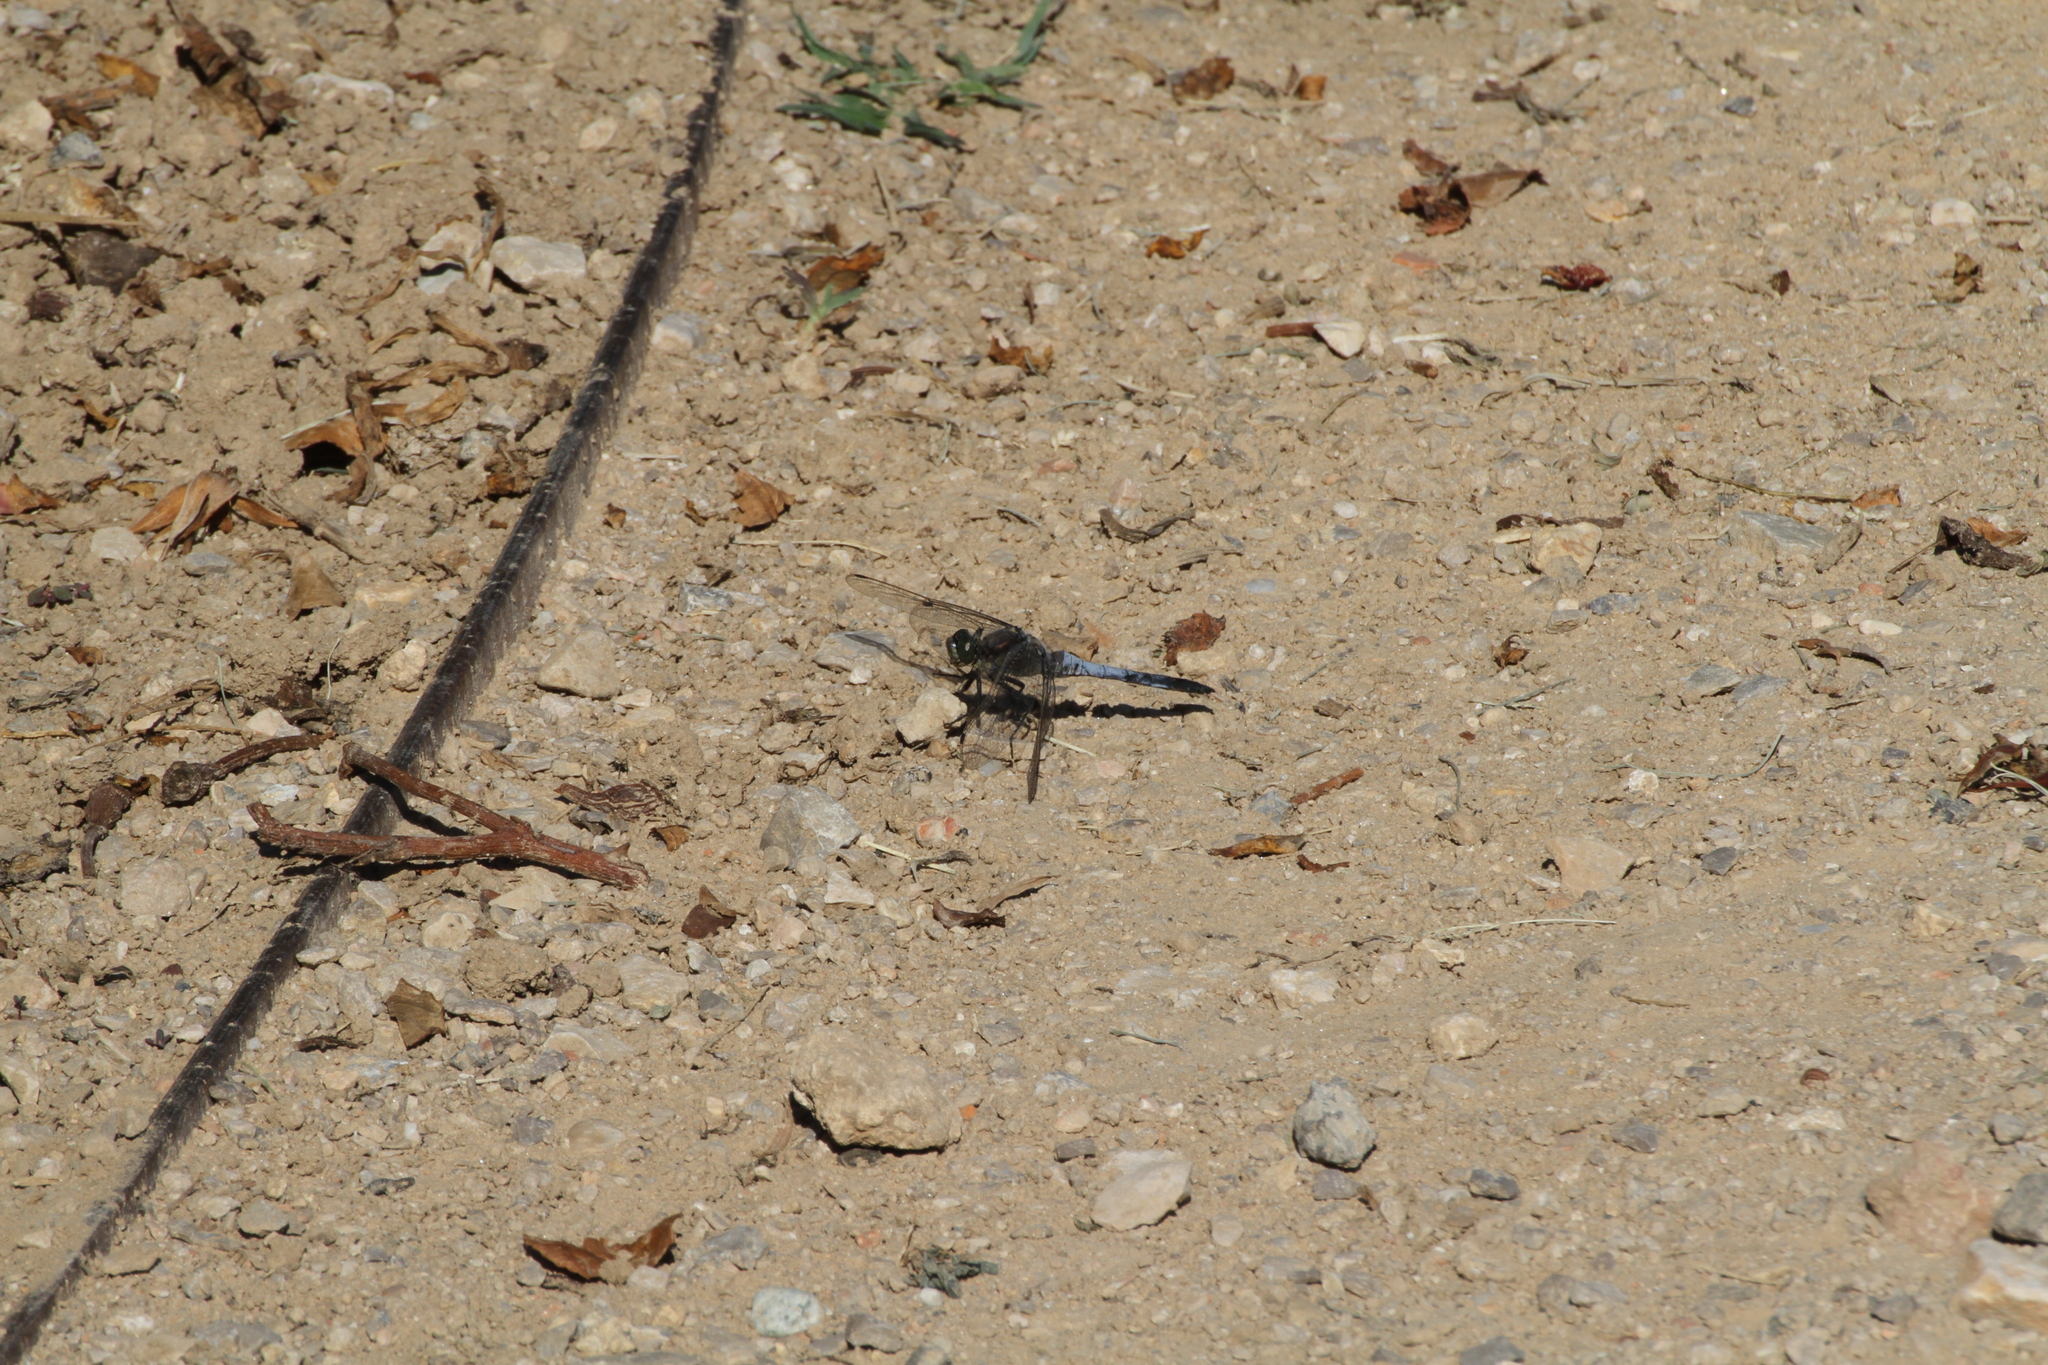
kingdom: Animalia
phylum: Arthropoda
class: Insecta
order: Odonata
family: Libellulidae
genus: Orthetrum
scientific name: Orthetrum cancellatum
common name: Black-tailed skimmer
